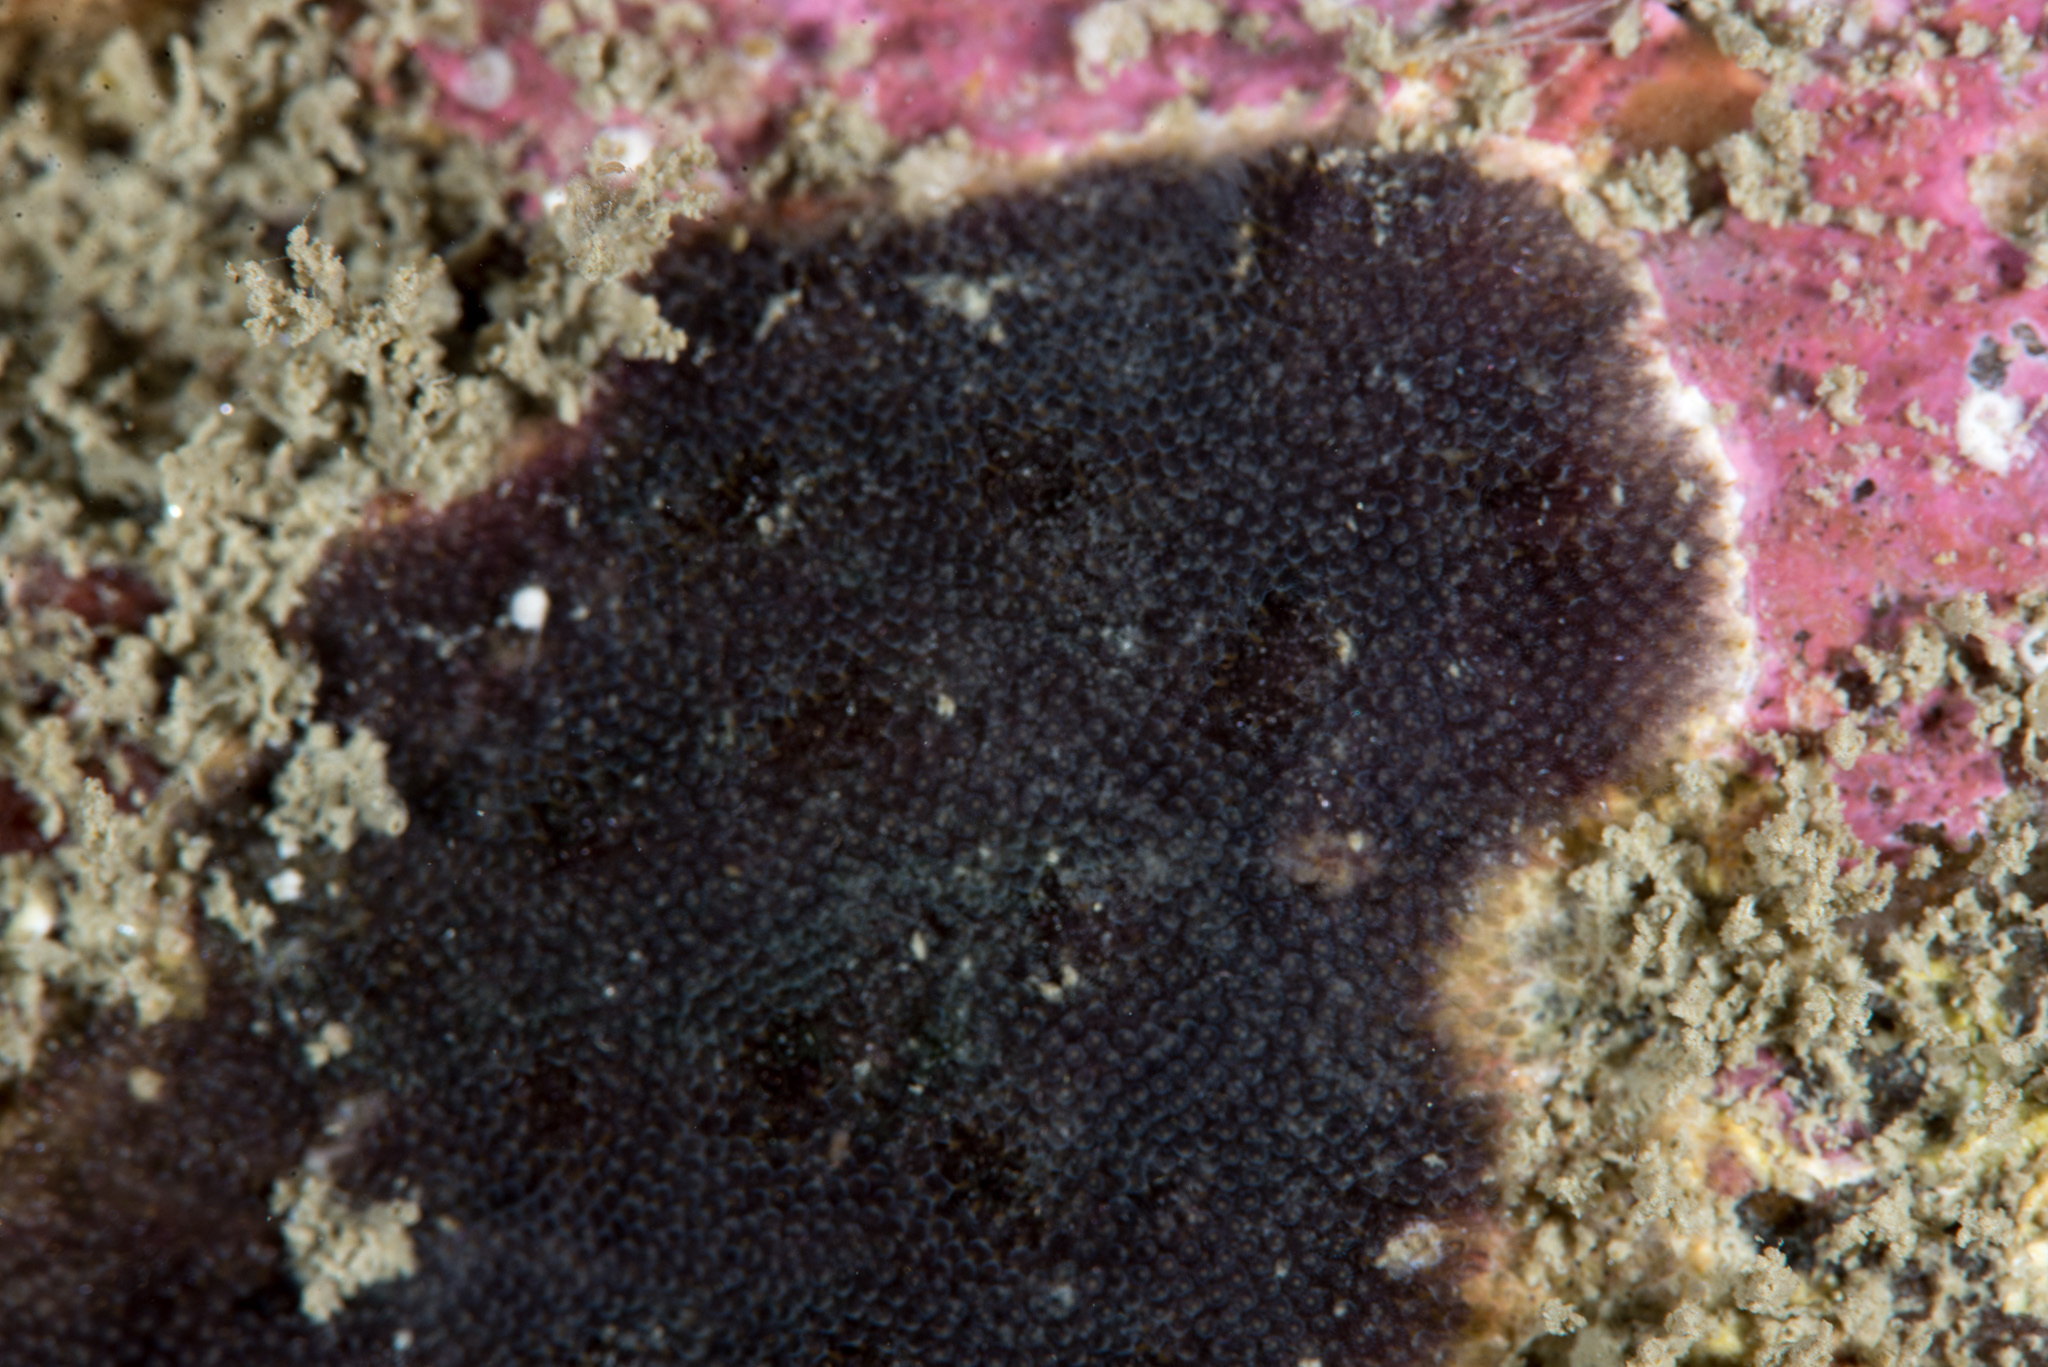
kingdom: Animalia
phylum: Bryozoa
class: Gymnolaemata
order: Cheilostomatida
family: Adeonidae
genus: Reptadeonella
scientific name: Reptadeonella violacea
